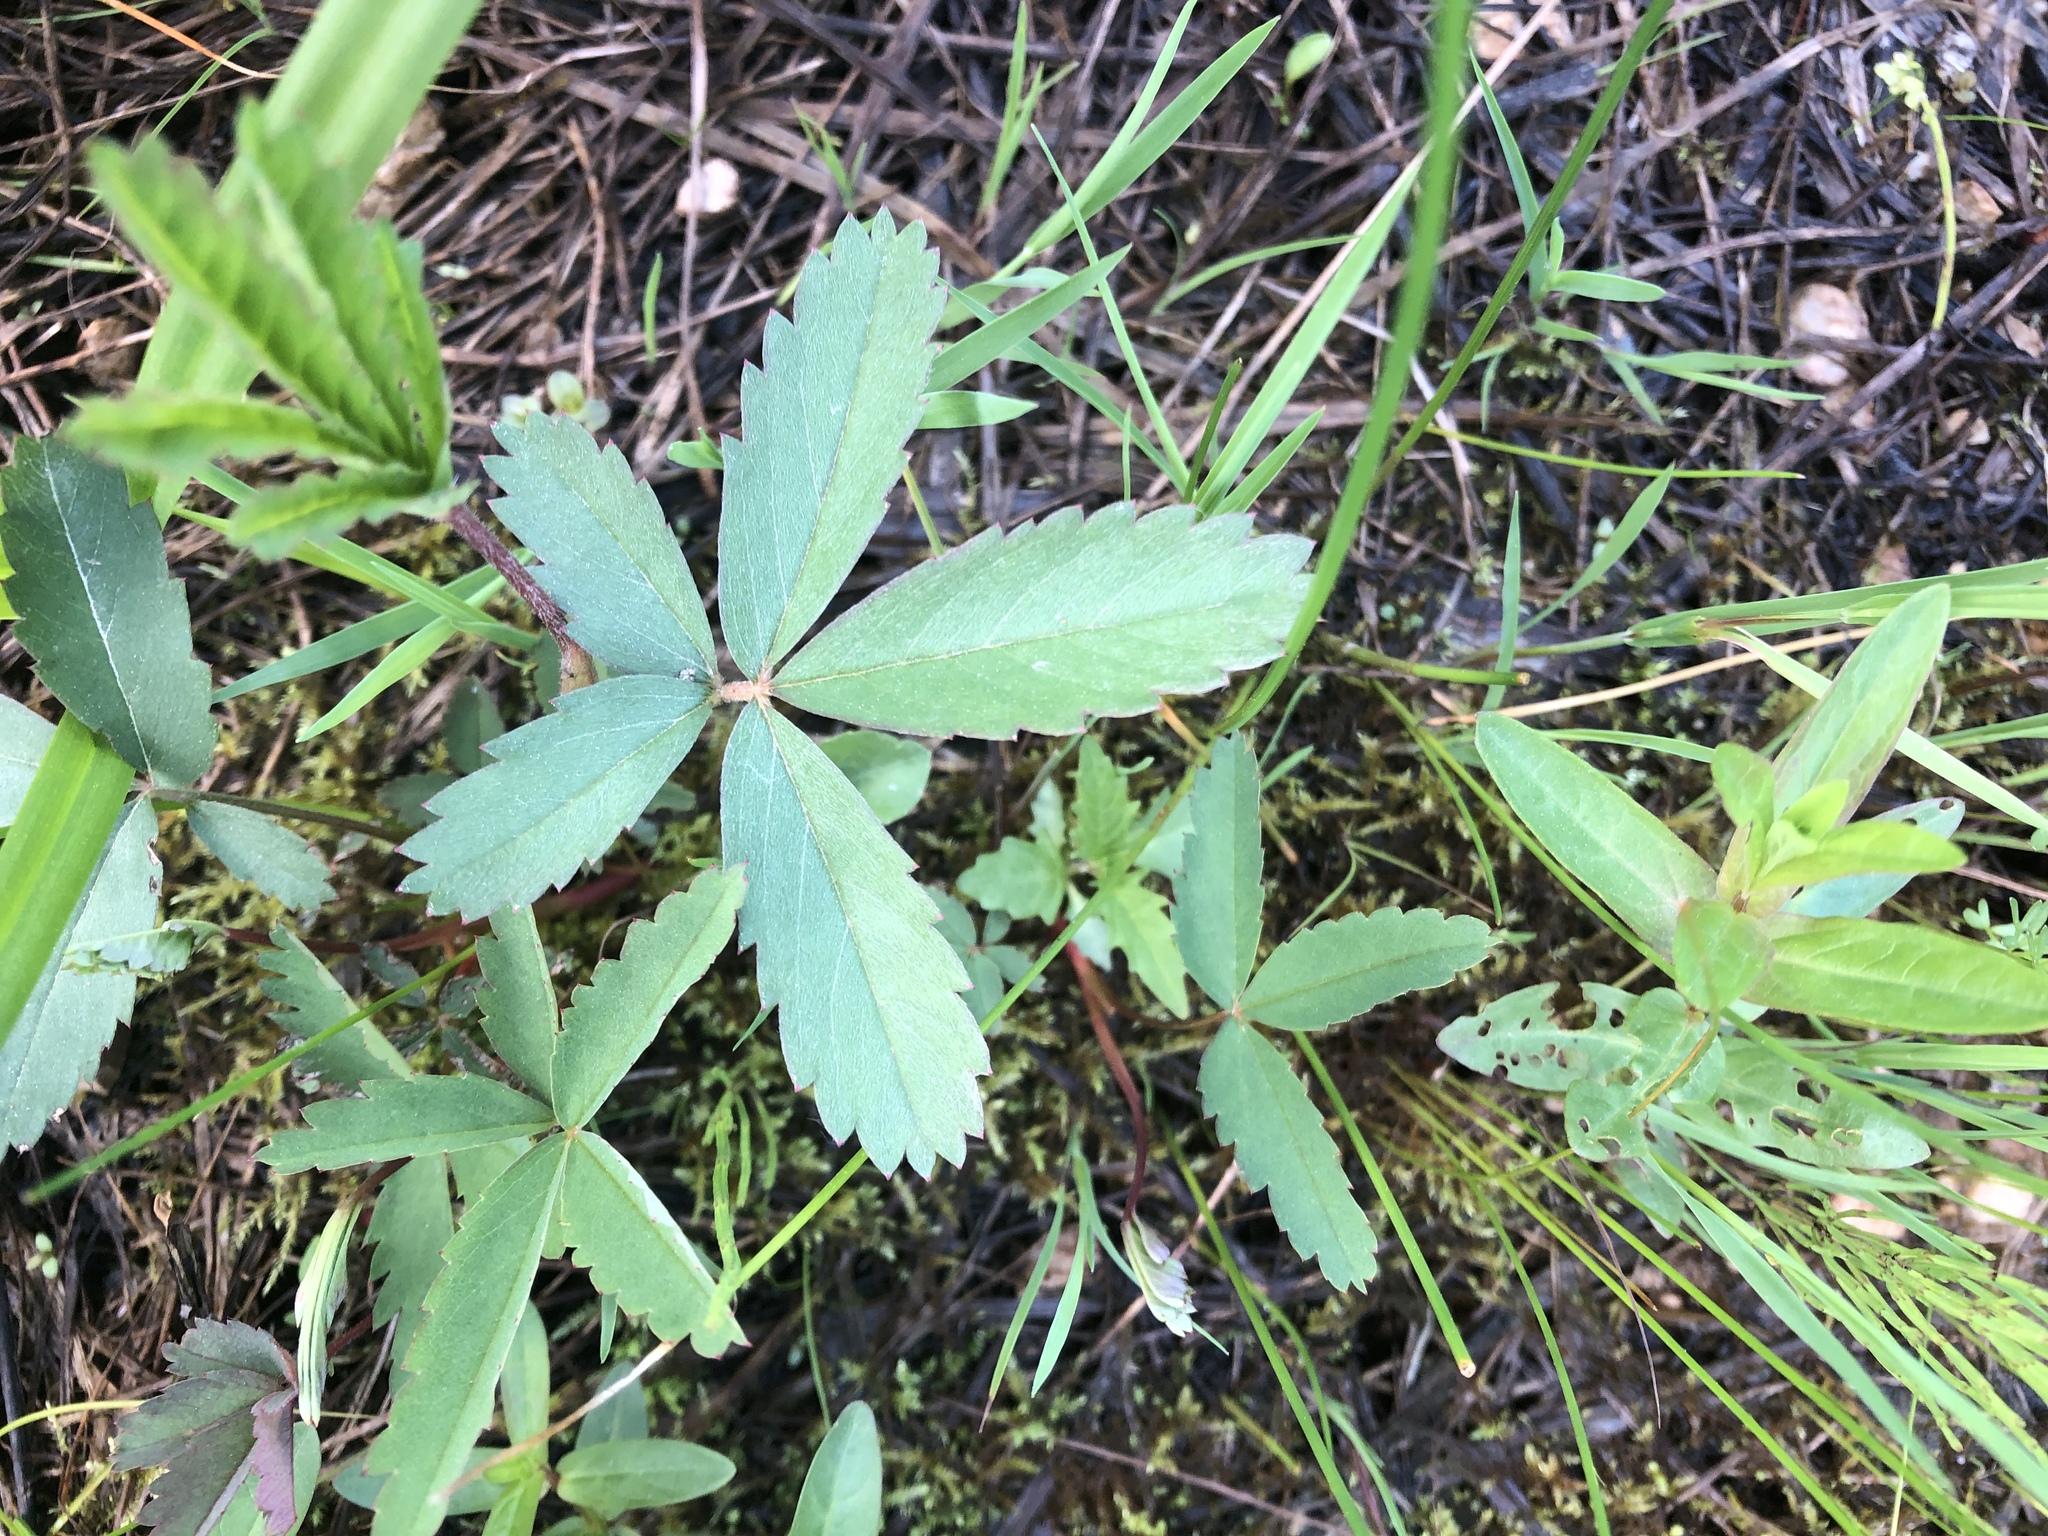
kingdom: Plantae
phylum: Tracheophyta
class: Magnoliopsida
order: Rosales
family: Rosaceae
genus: Comarum
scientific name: Comarum palustre
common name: Marsh cinquefoil
